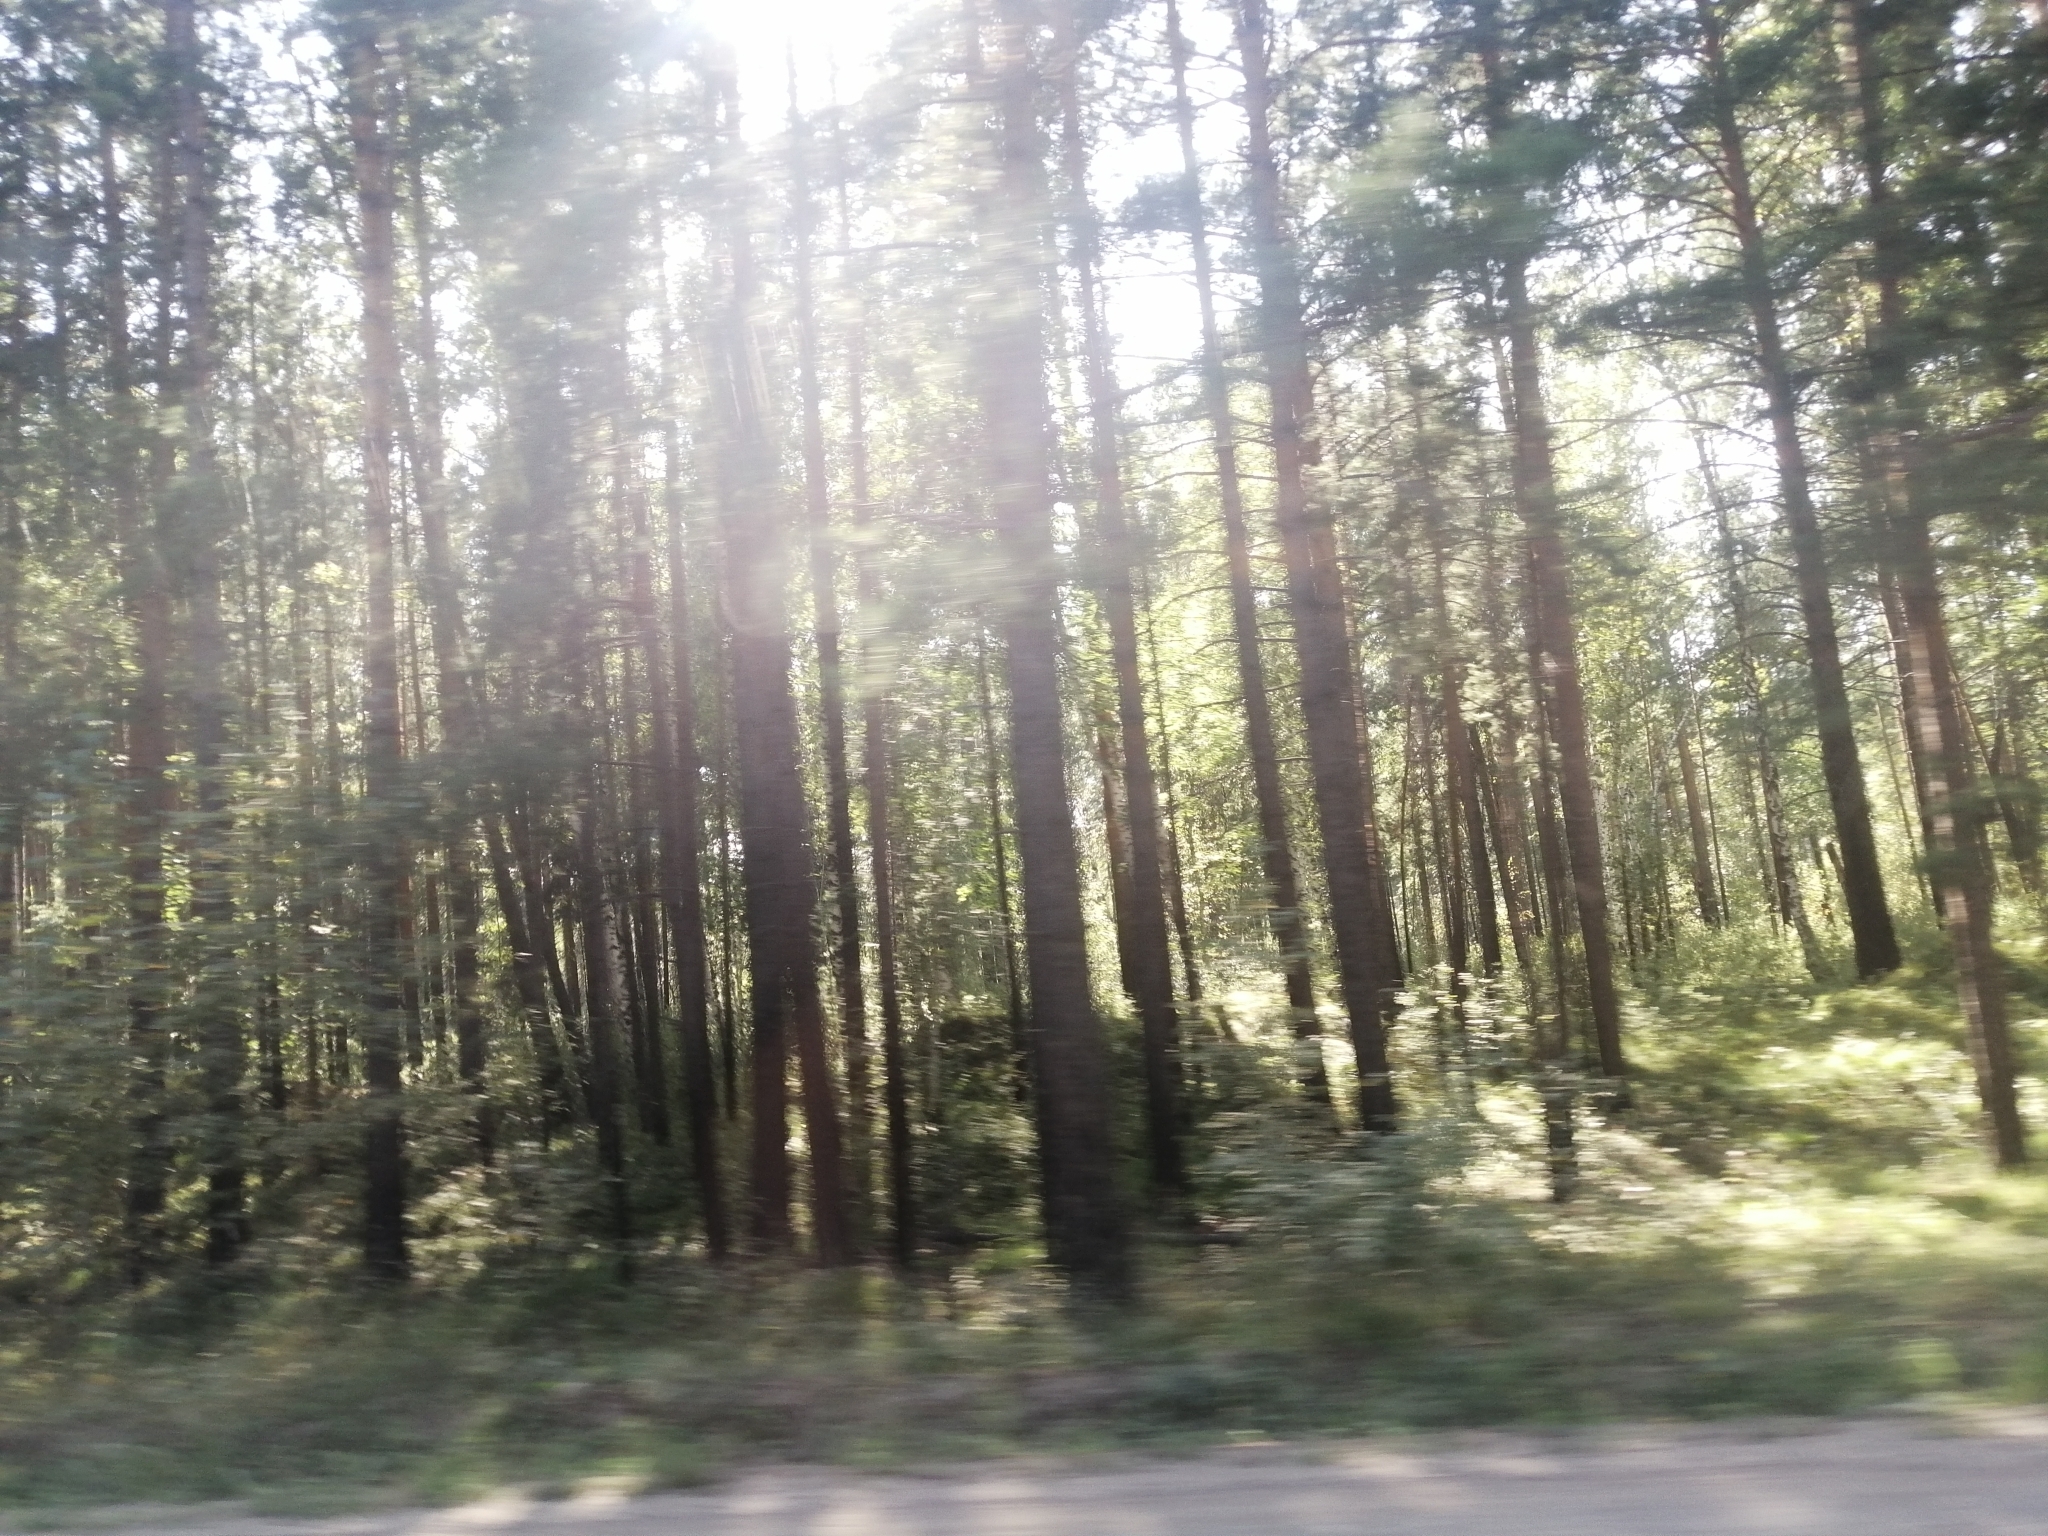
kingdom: Plantae
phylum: Tracheophyta
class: Pinopsida
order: Pinales
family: Pinaceae
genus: Pinus
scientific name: Pinus sylvestris
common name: Scots pine
